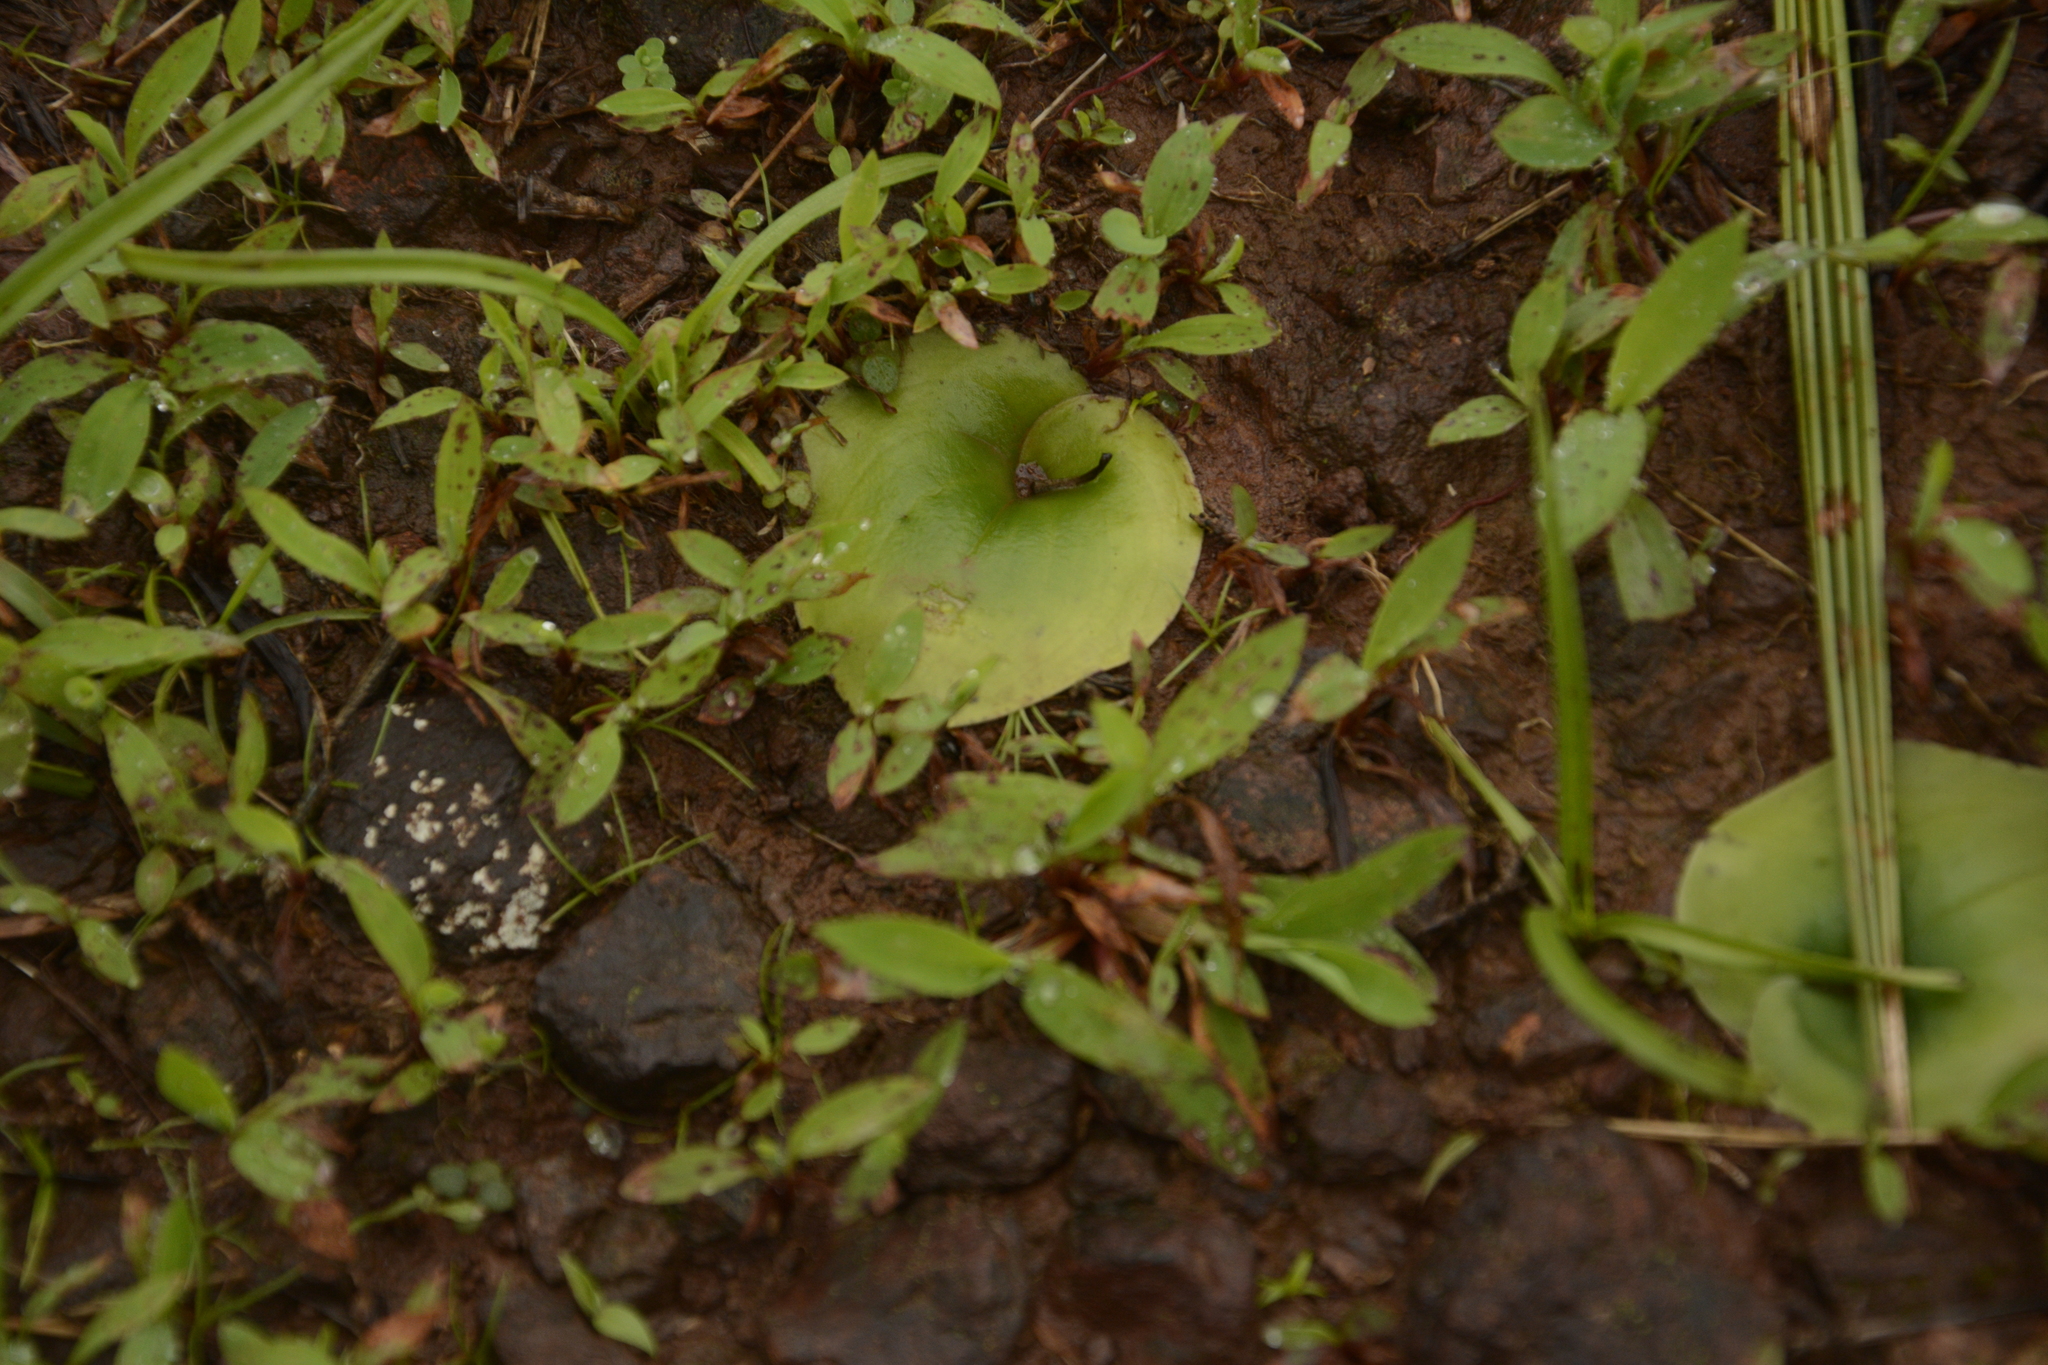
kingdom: Plantae
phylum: Tracheophyta
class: Liliopsida
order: Asparagales
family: Orchidaceae
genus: Habenaria
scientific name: Habenaria grandifloriformis
